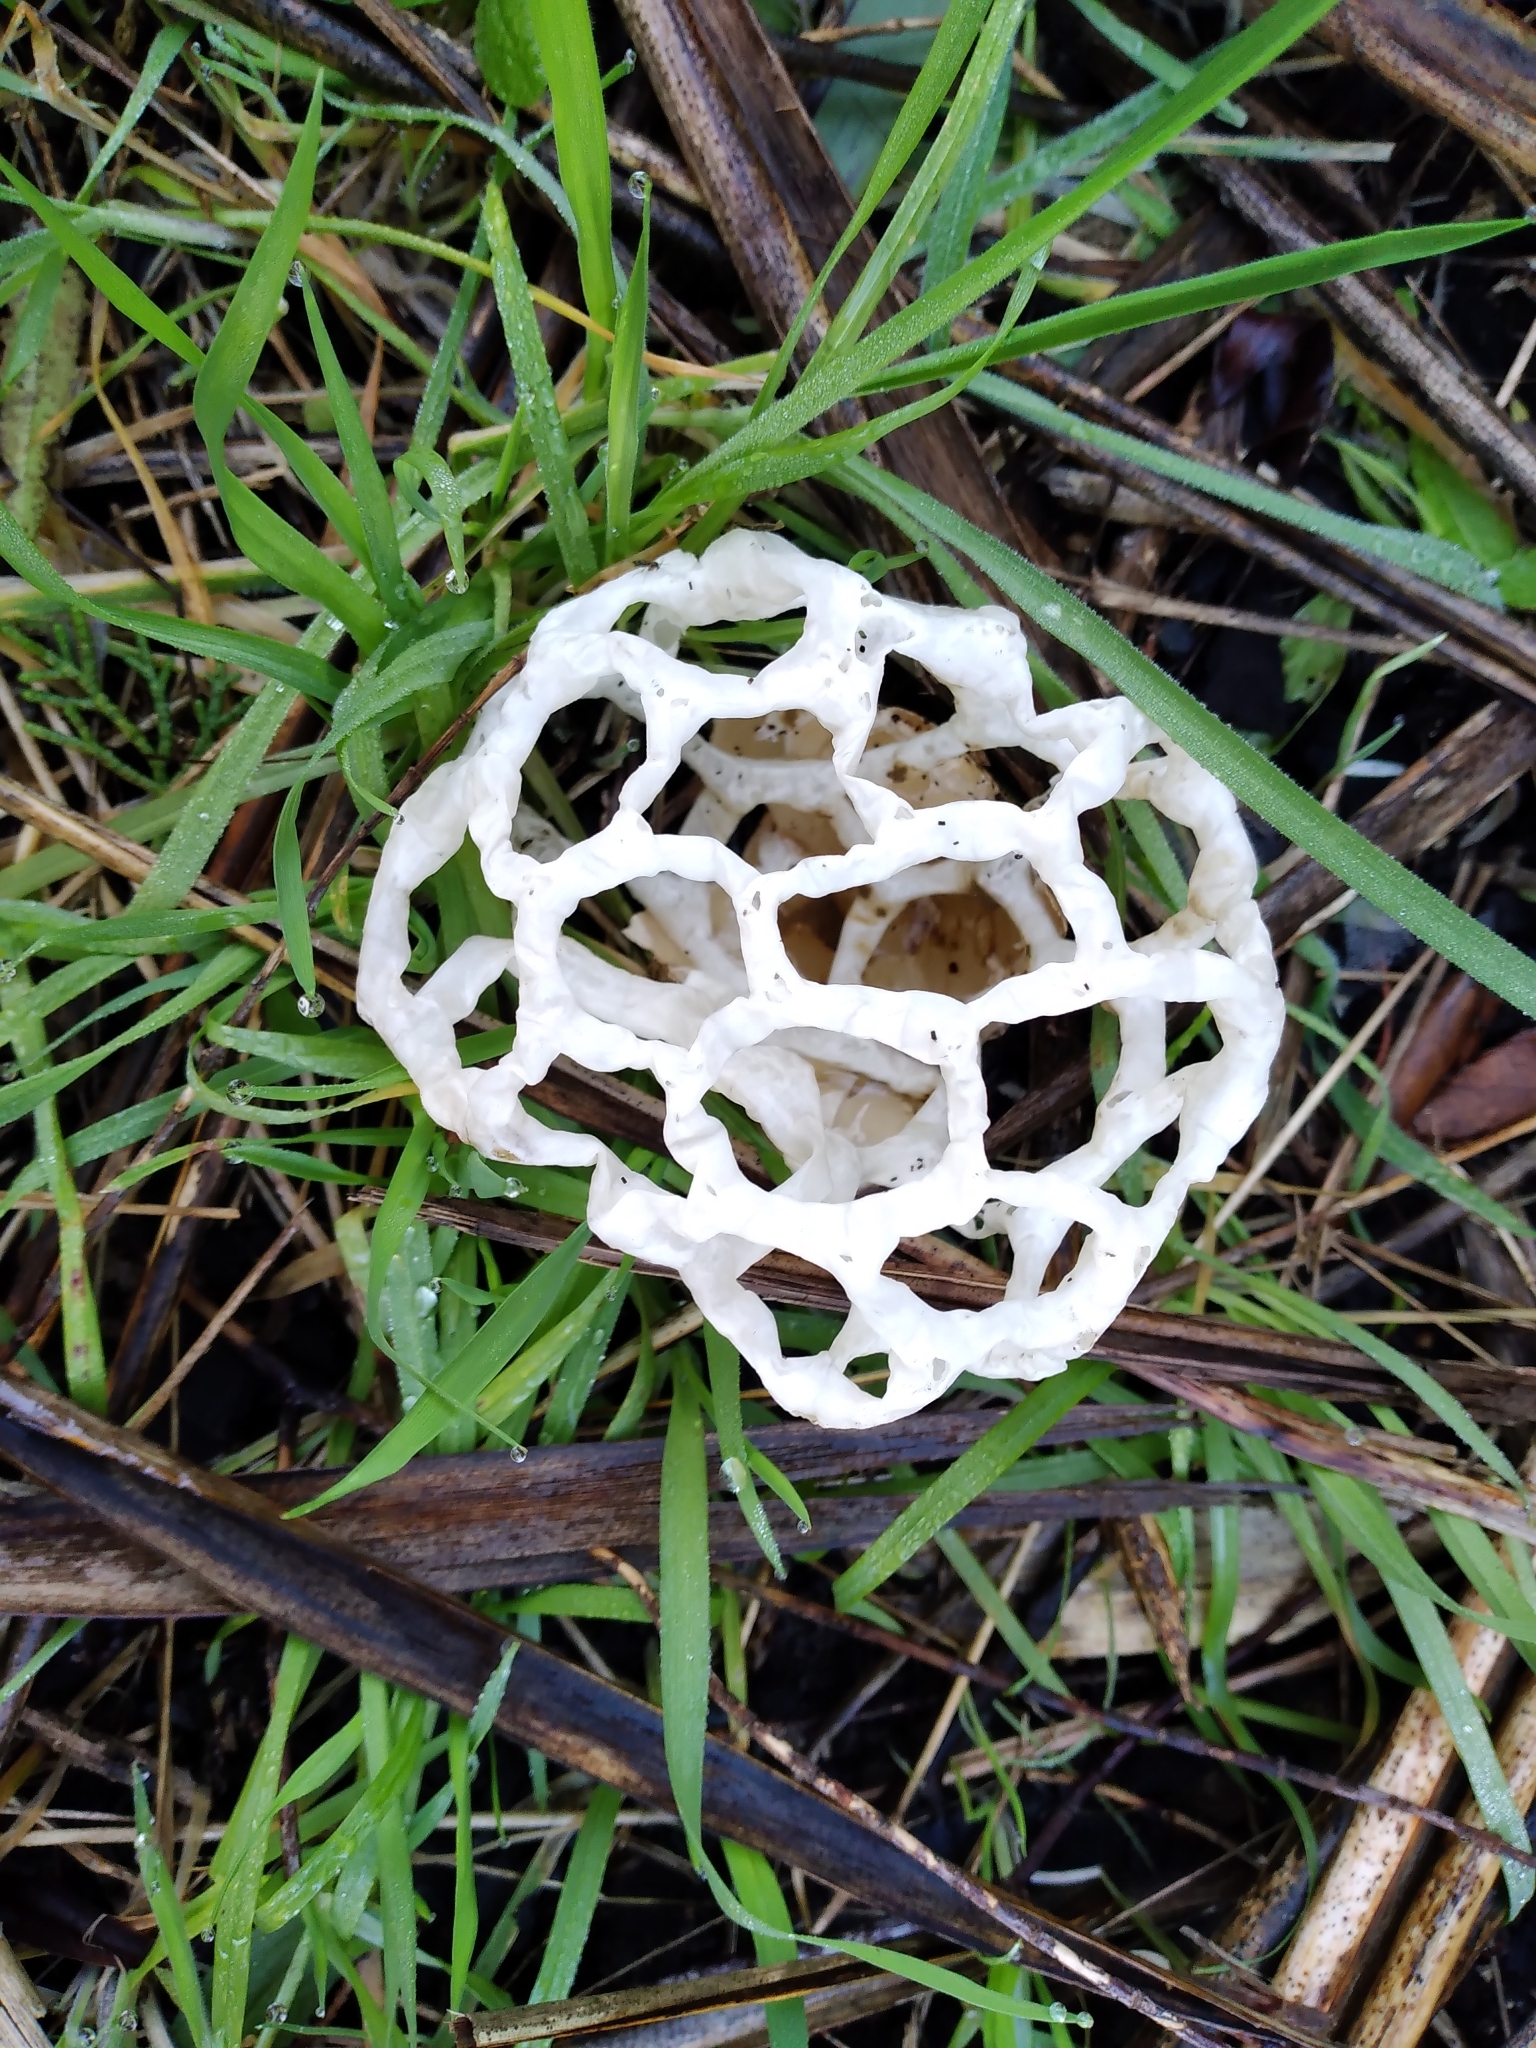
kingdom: Fungi
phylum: Basidiomycota
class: Agaricomycetes
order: Phallales
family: Phallaceae
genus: Ileodictyon
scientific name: Ileodictyon cibarium
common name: Basket fungus
